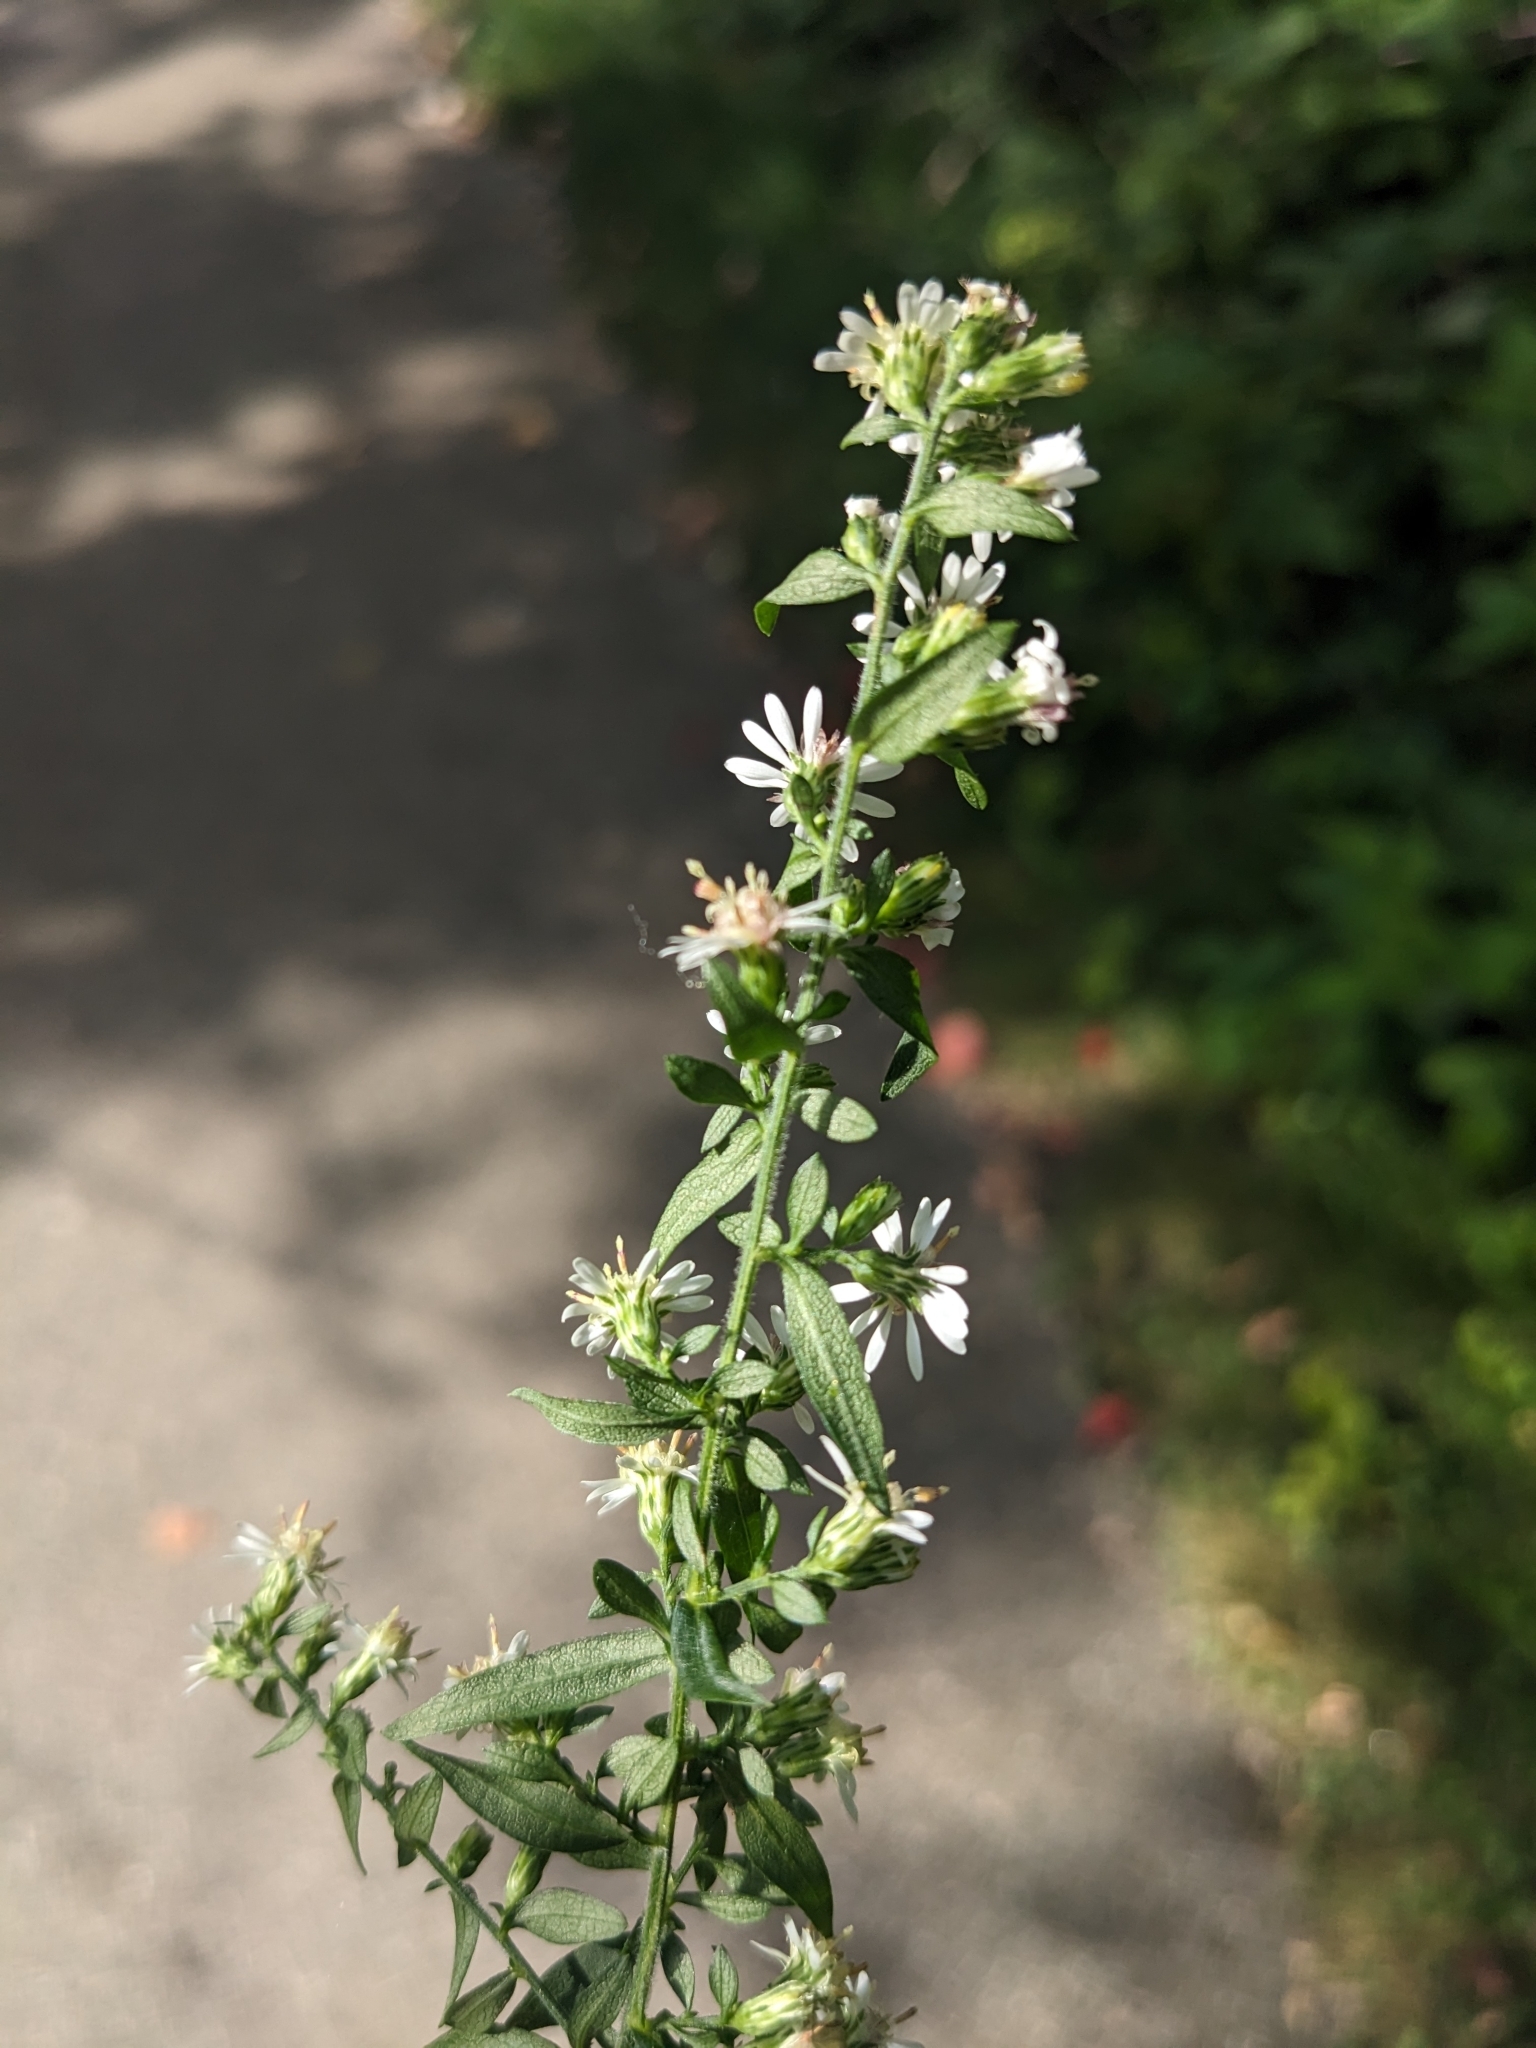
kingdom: Plantae
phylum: Tracheophyta
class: Magnoliopsida
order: Asterales
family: Asteraceae
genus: Symphyotrichum
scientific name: Symphyotrichum lateriflorum
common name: Calico aster
